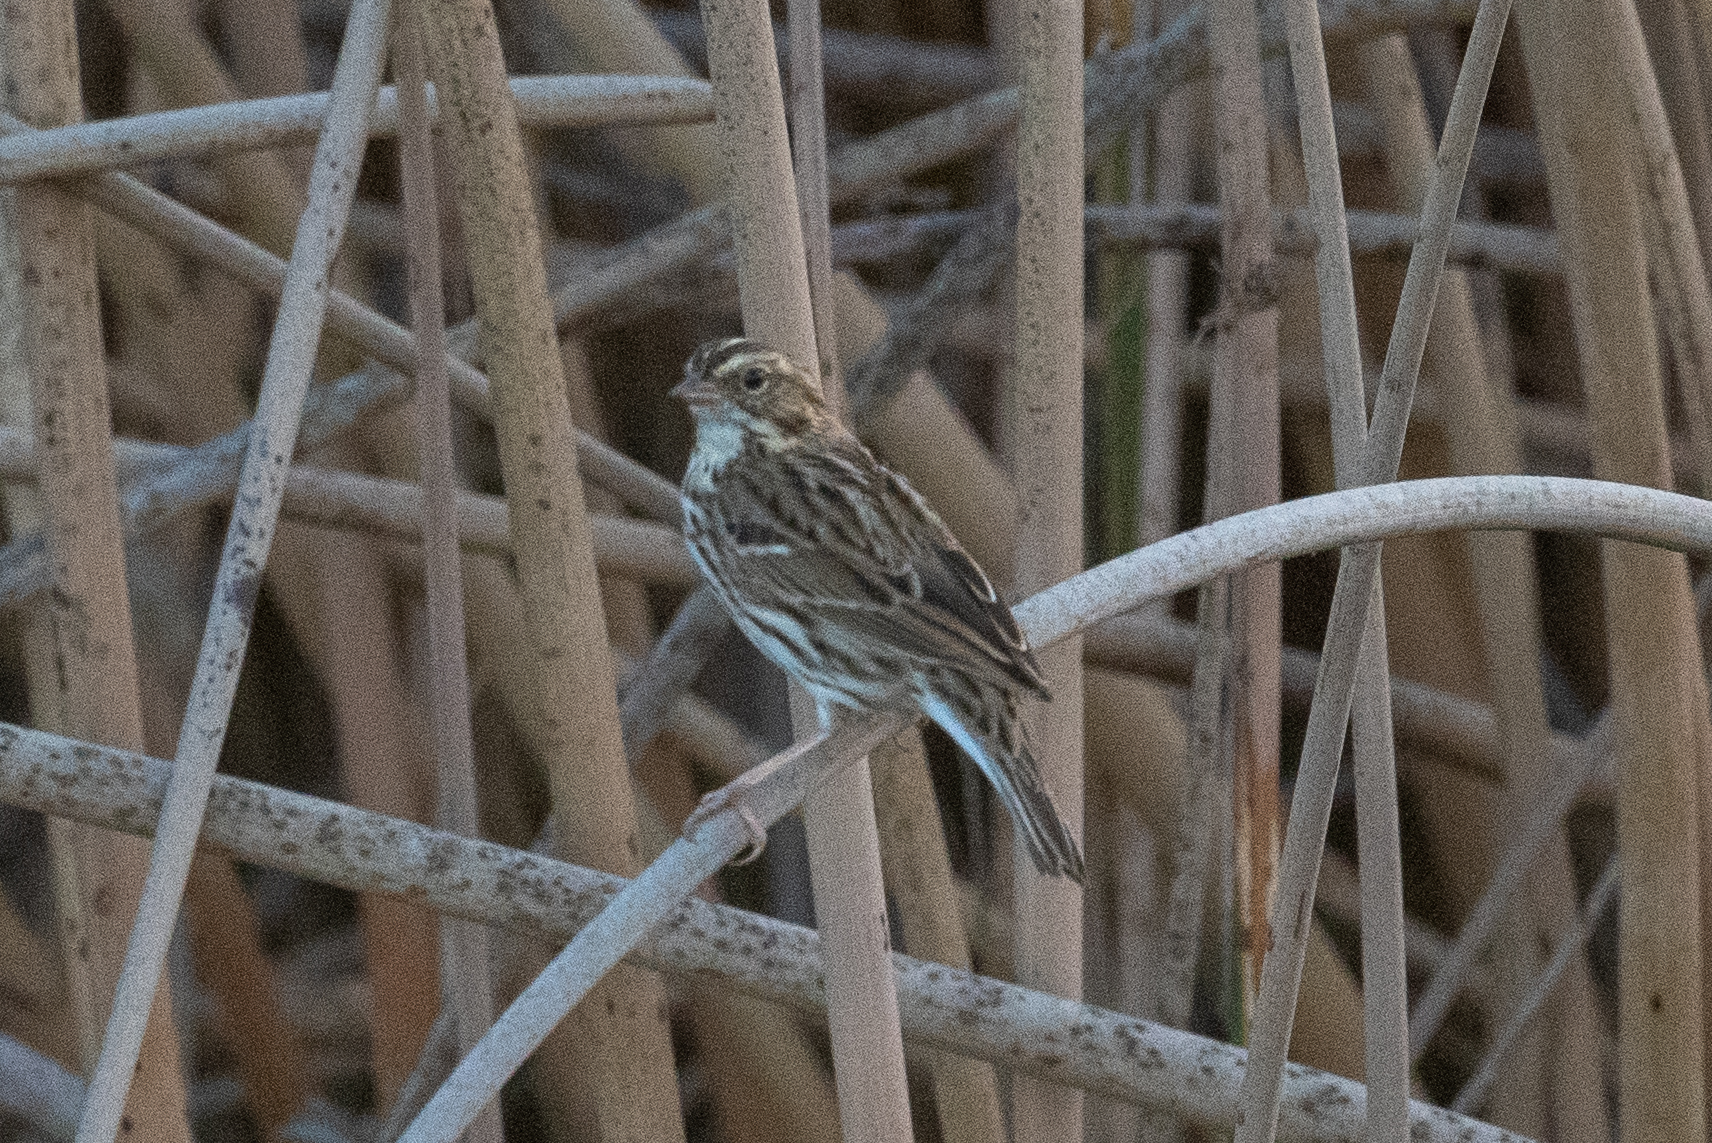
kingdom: Animalia
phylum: Chordata
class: Aves
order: Passeriformes
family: Passerellidae
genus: Passerculus
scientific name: Passerculus sandwichensis
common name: Savannah sparrow
